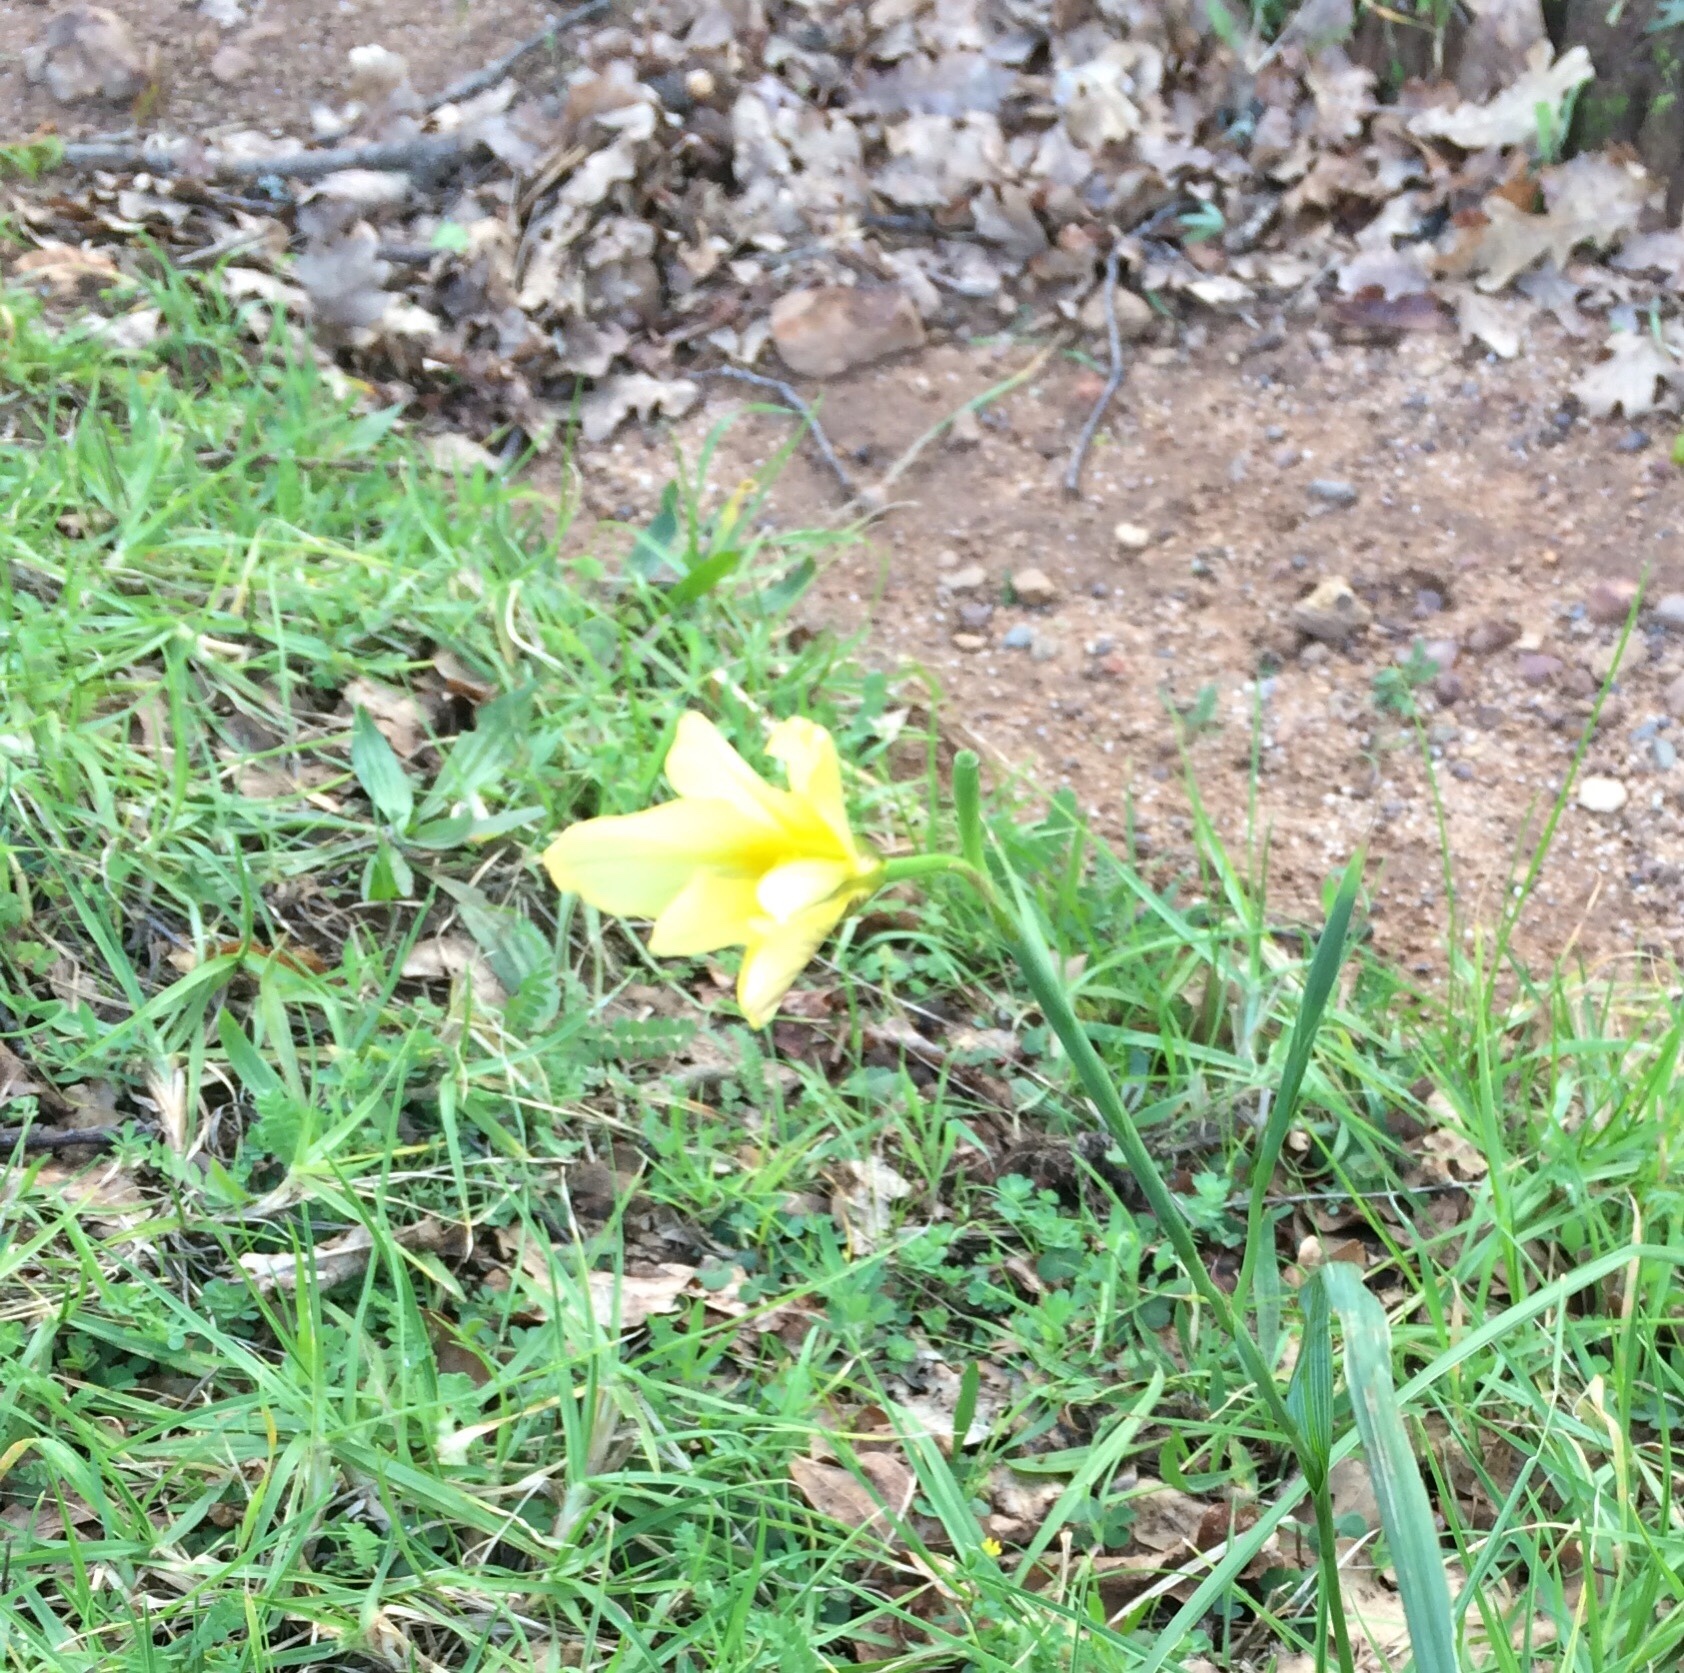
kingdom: Plantae
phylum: Tracheophyta
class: Liliopsida
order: Asparagales
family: Iridaceae
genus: Moraea
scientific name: Moraea collina
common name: Cape-tulip
